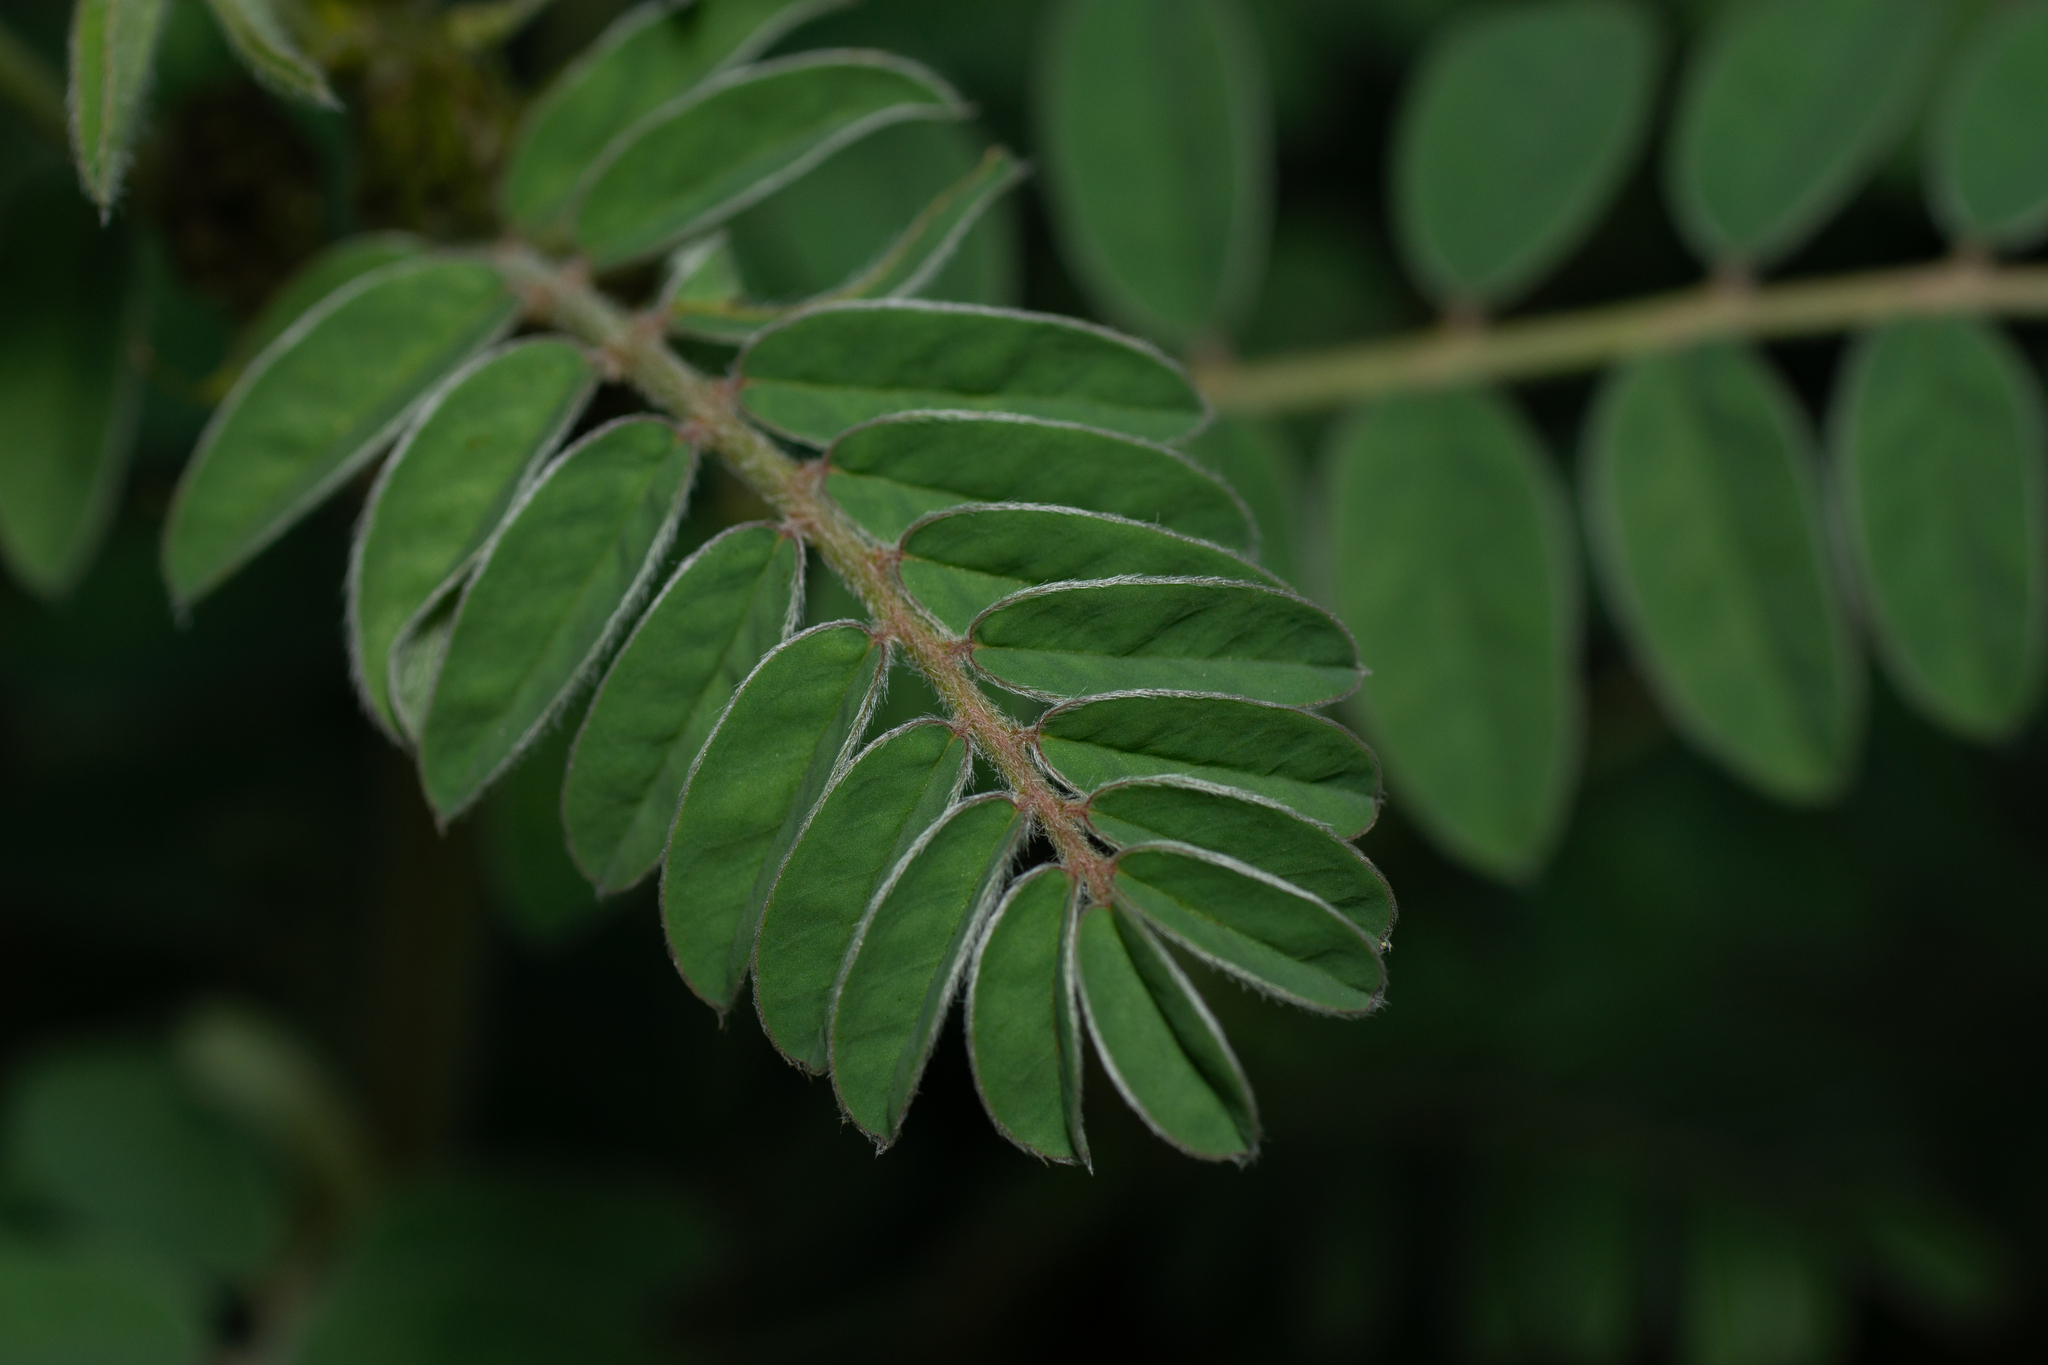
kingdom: Plantae
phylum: Tracheophyta
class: Magnoliopsida
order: Fabales
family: Fabaceae
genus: Erophaca
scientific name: Erophaca baetica
